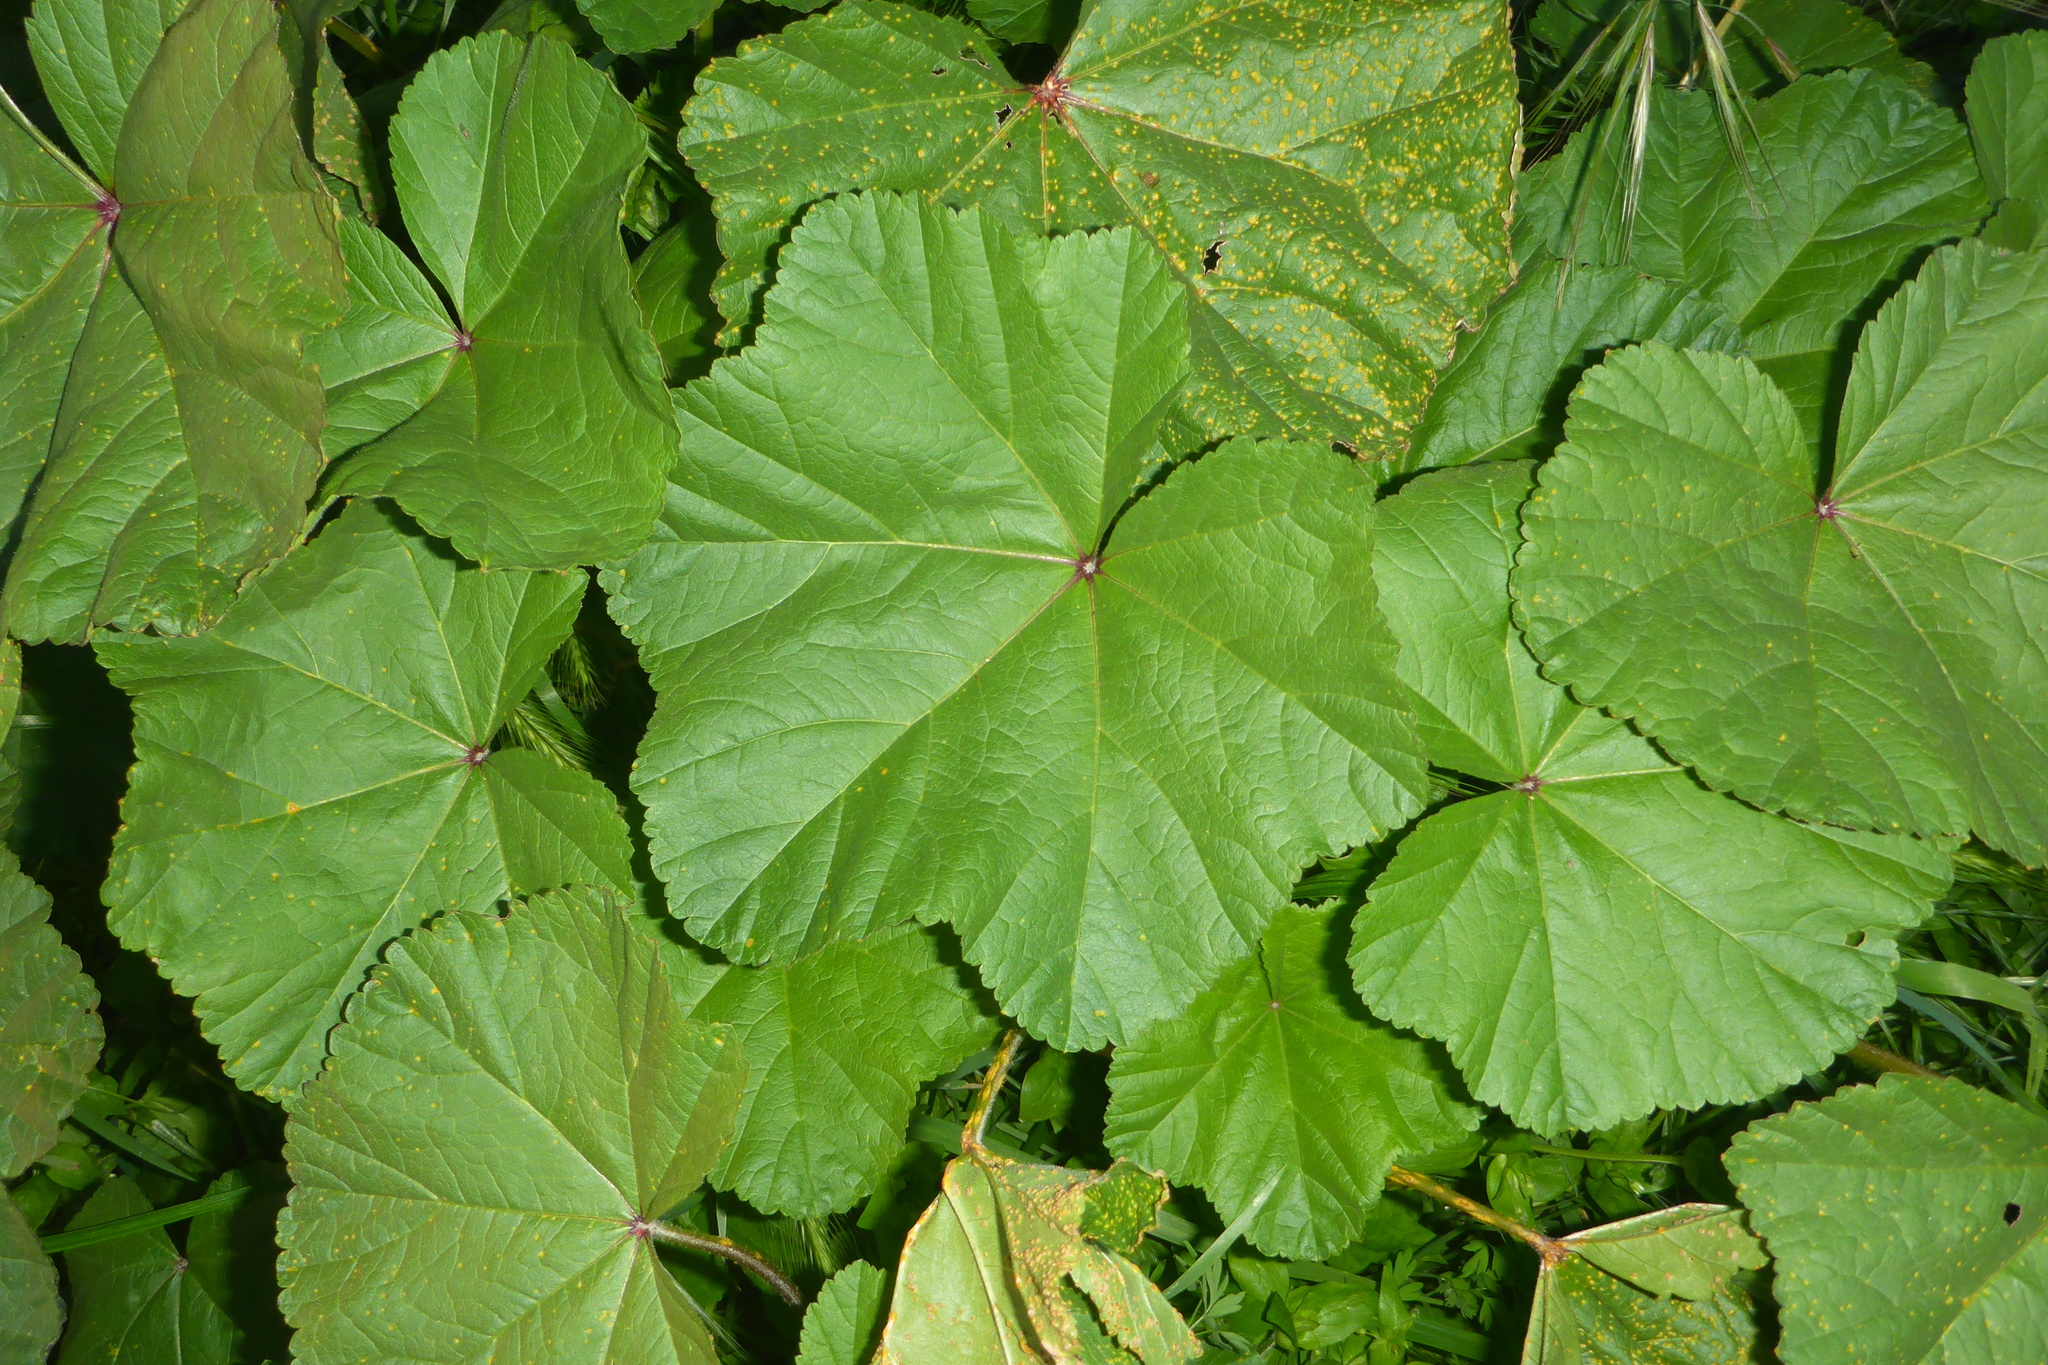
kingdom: Plantae
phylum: Tracheophyta
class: Magnoliopsida
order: Malvales
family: Malvaceae
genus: Malva
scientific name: Malva
